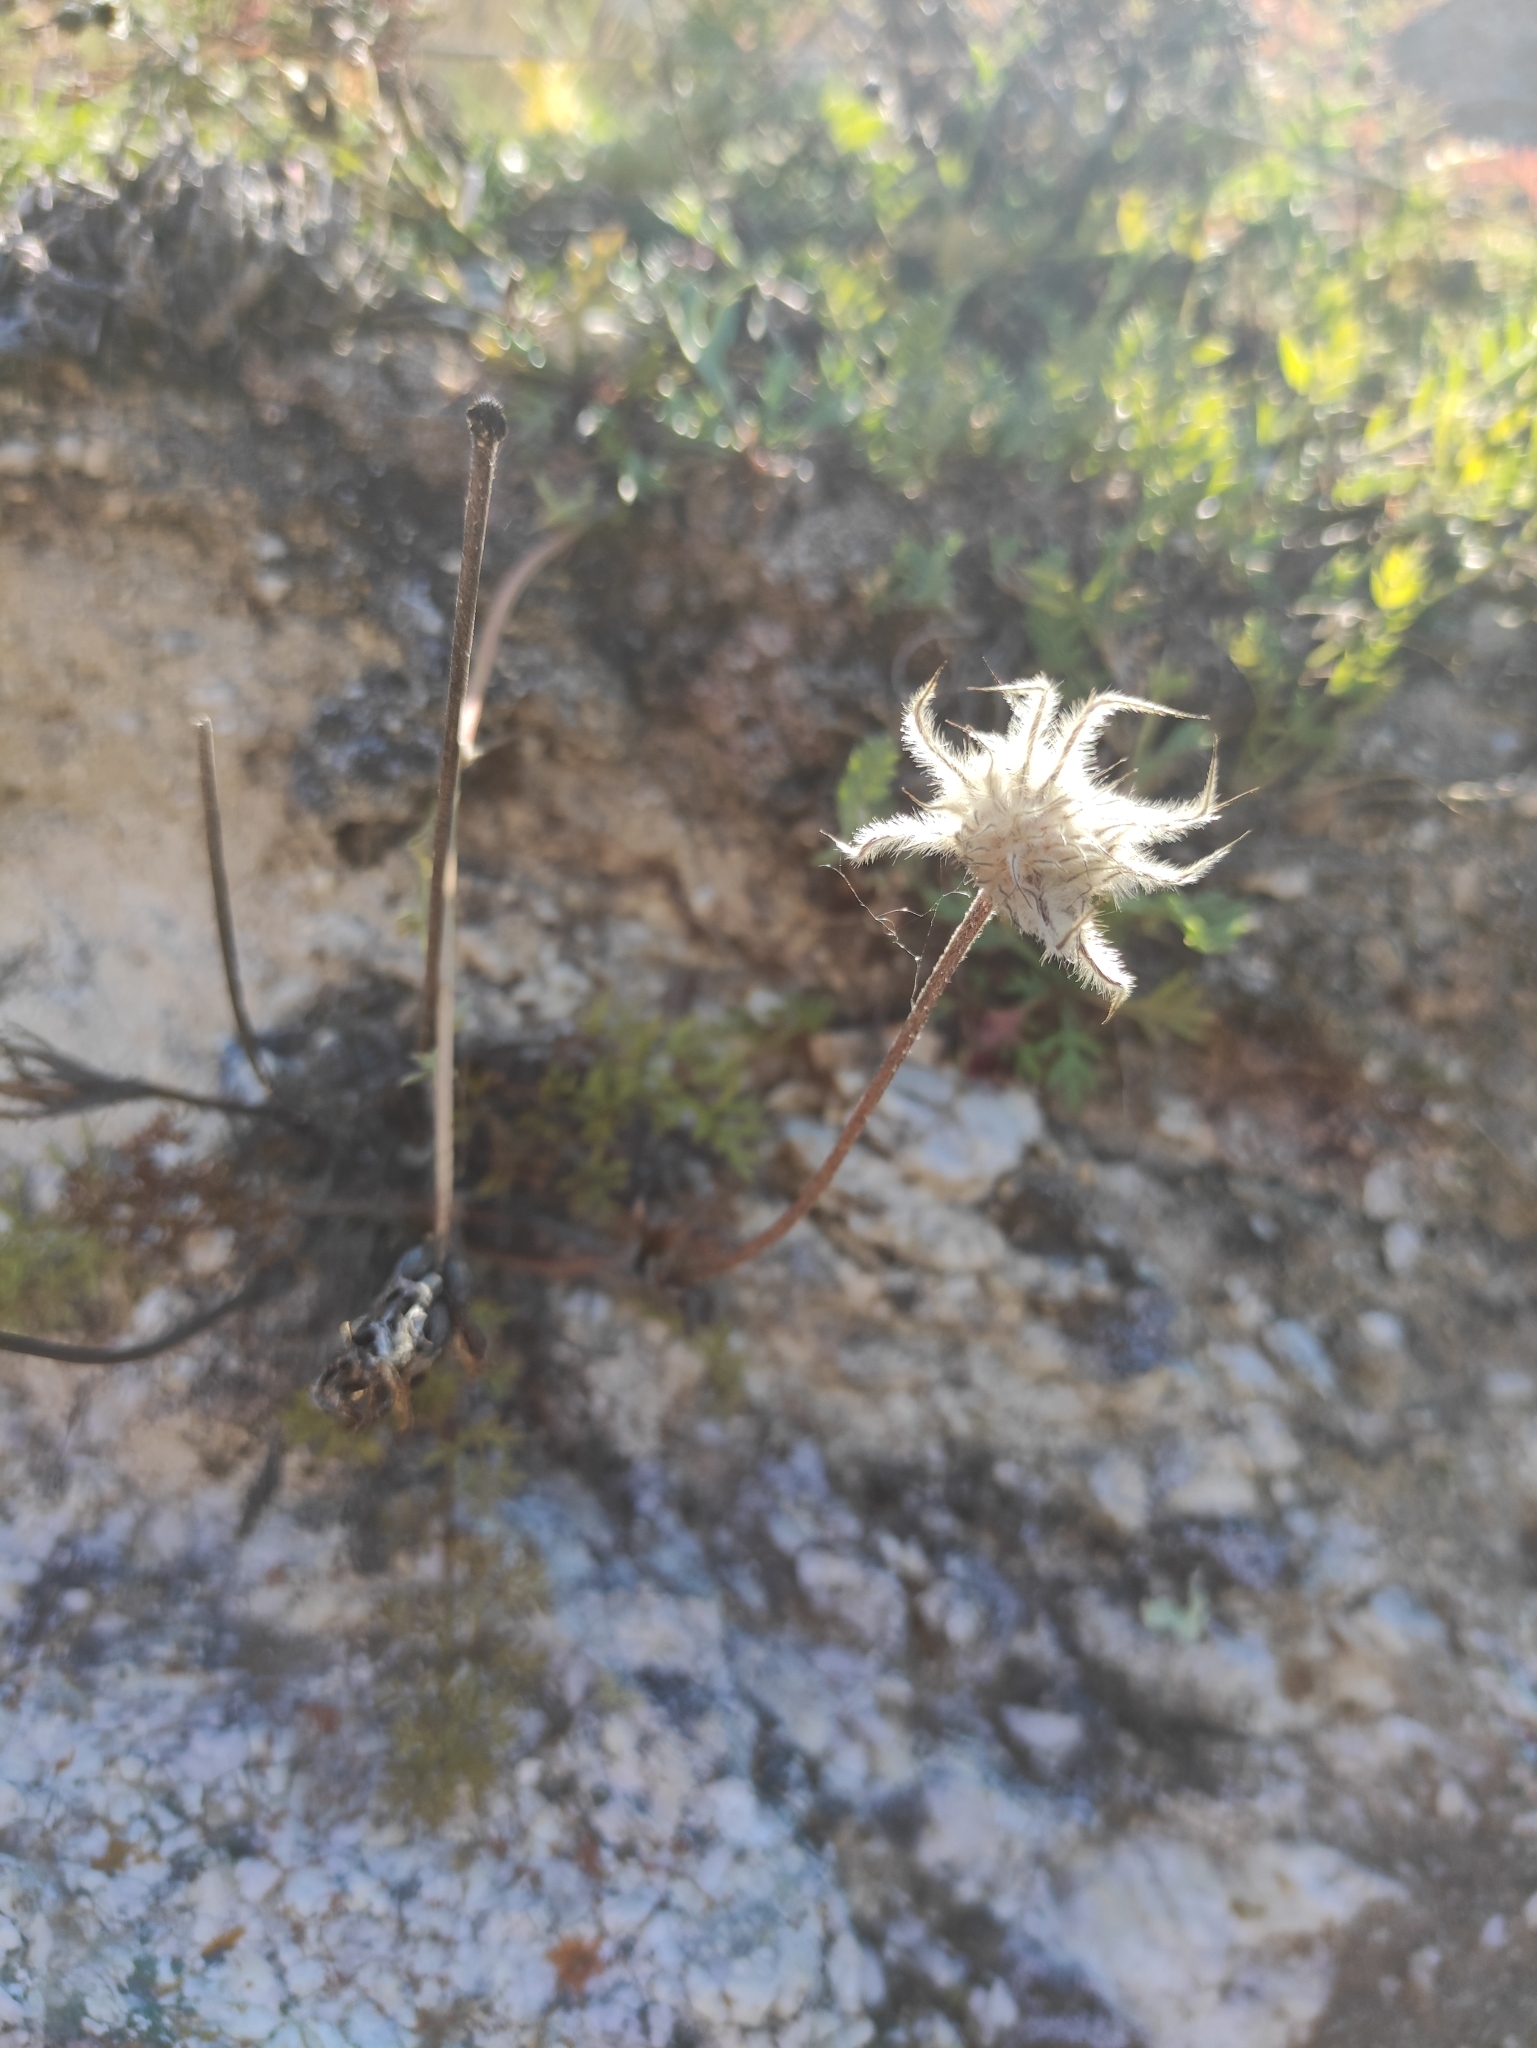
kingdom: Plantae
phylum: Tracheophyta
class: Magnoliopsida
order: Ranunculales
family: Ranunculaceae
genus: Pulsatilla
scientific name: Pulsatilla tenuiloba
